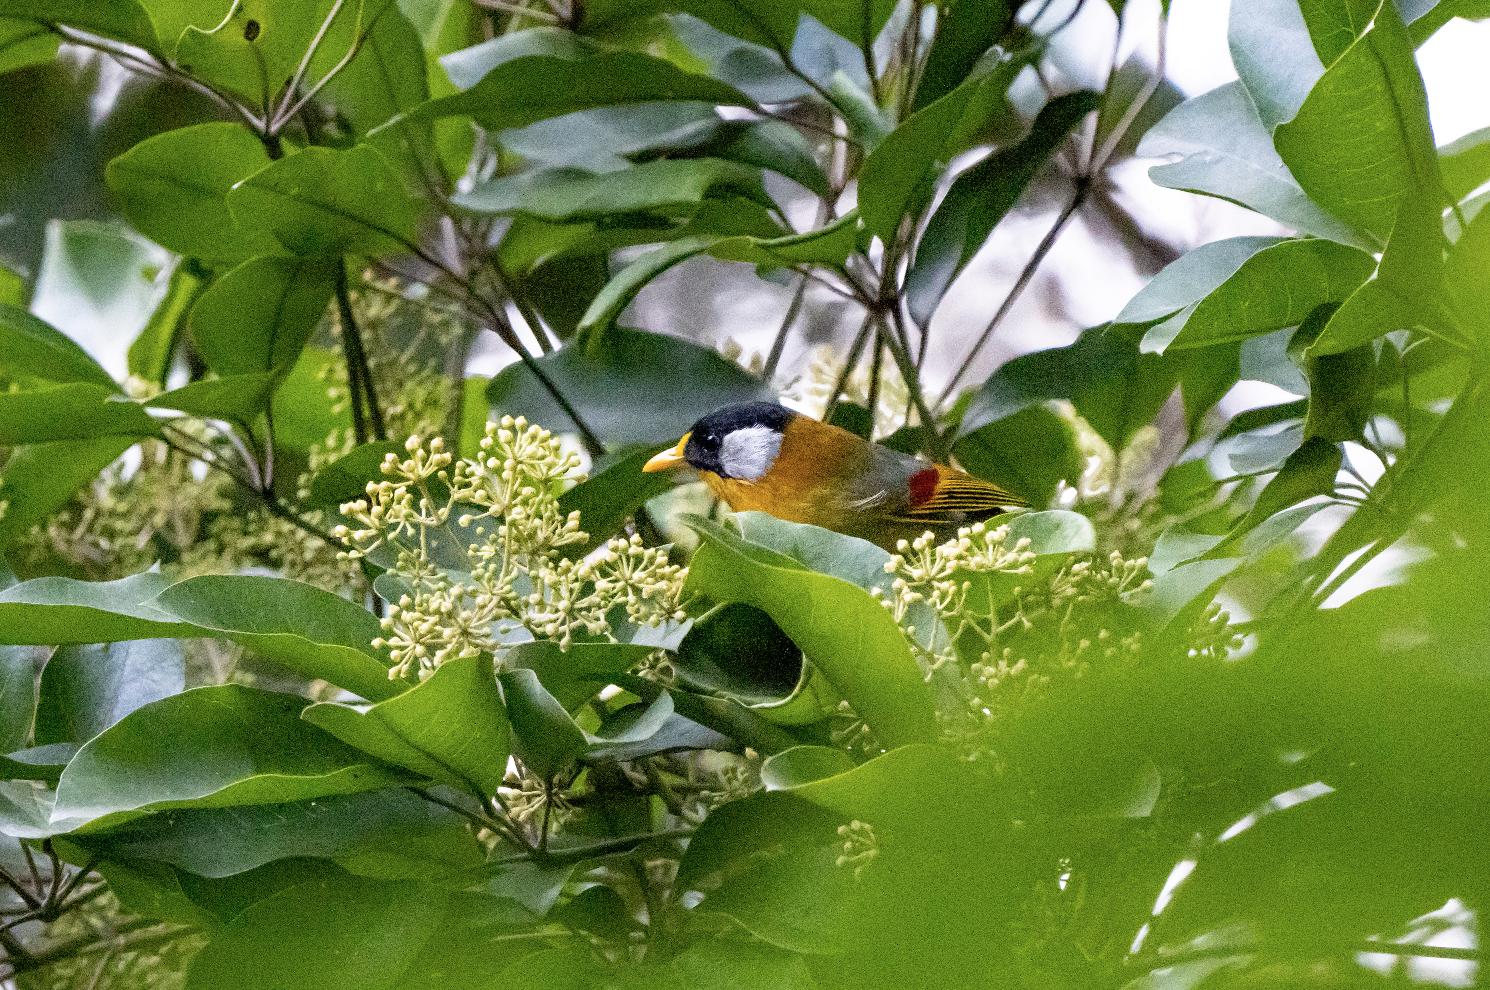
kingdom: Animalia
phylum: Chordata
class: Aves
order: Passeriformes
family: Leiothrichidae
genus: Leiothrix
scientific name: Leiothrix argentauris
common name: Silver-eared mesia
